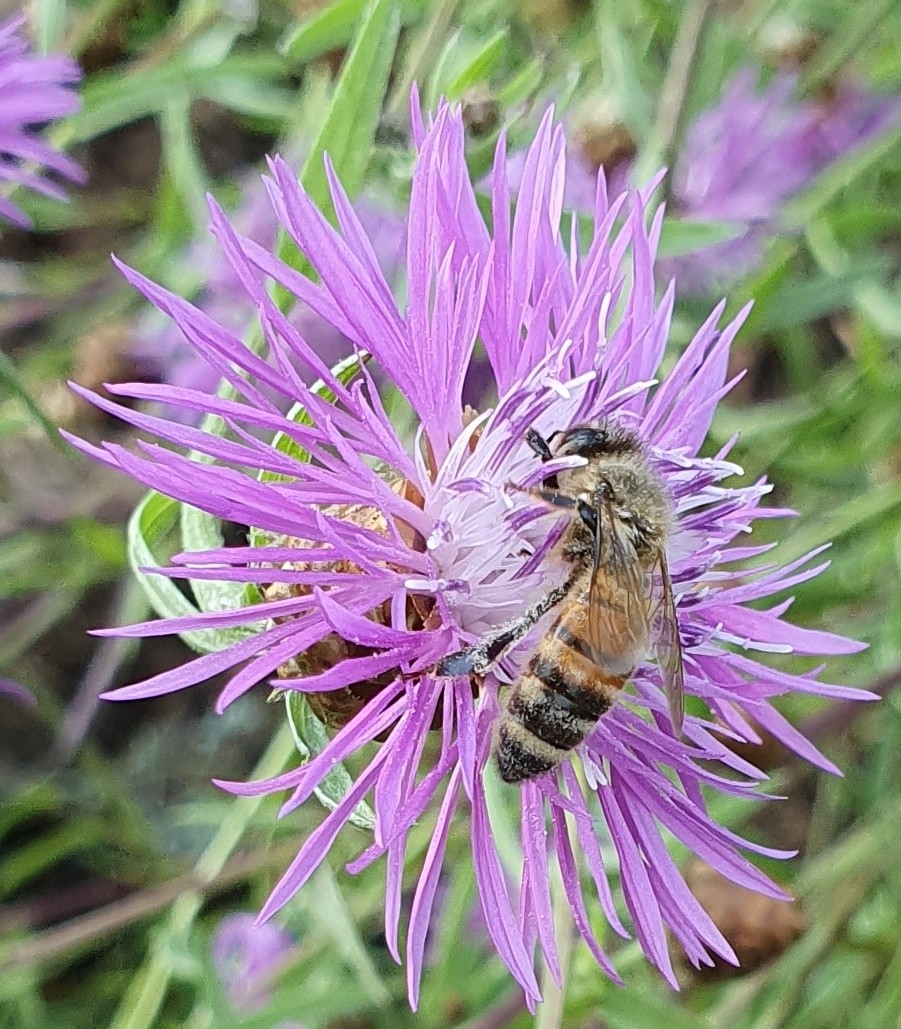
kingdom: Animalia
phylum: Arthropoda
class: Insecta
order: Hymenoptera
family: Apidae
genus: Apis
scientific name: Apis mellifera
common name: Honey bee
